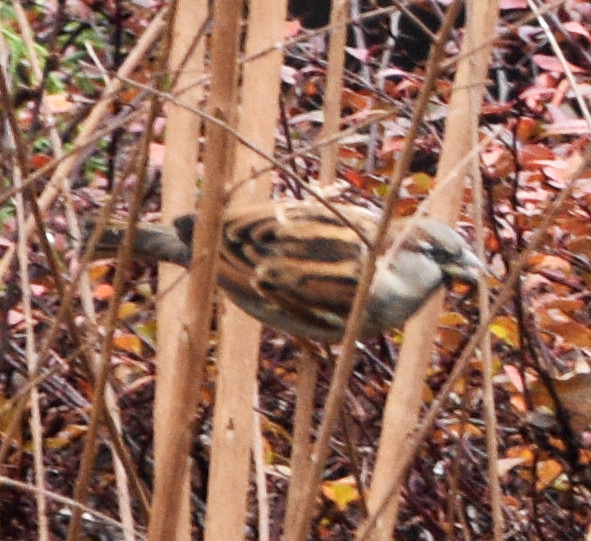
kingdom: Animalia
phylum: Chordata
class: Aves
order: Passeriformes
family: Passeridae
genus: Passer
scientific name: Passer domesticus
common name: House sparrow
